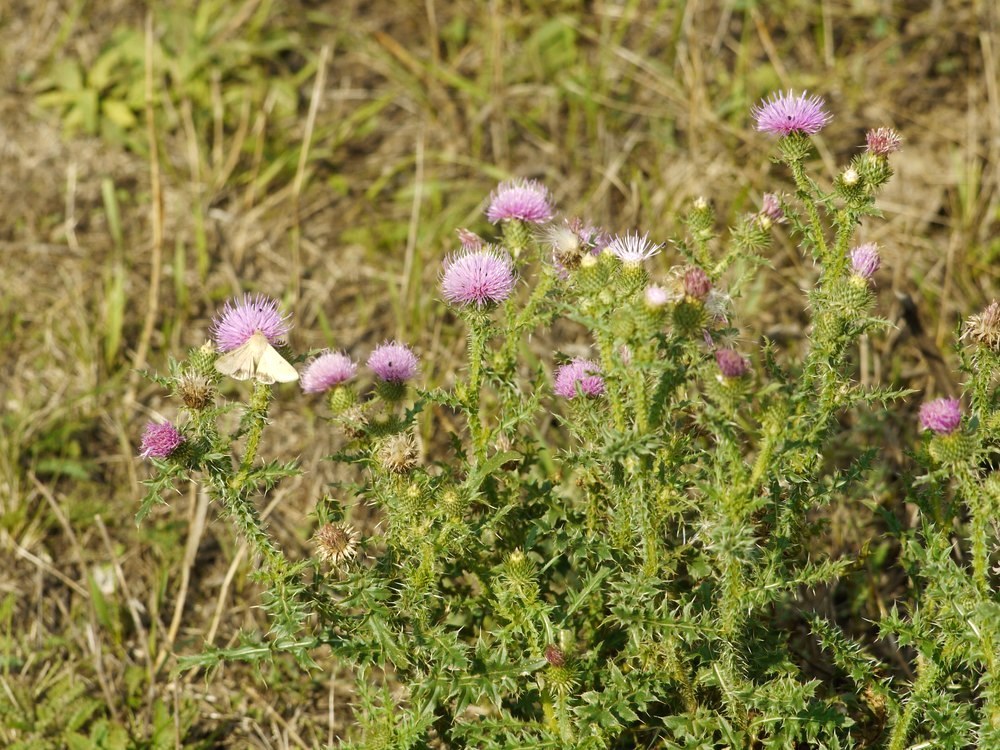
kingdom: Plantae
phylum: Tracheophyta
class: Magnoliopsida
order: Asterales
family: Asteraceae
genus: Carduus
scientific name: Carduus acanthoides
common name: Plumeless thistle
